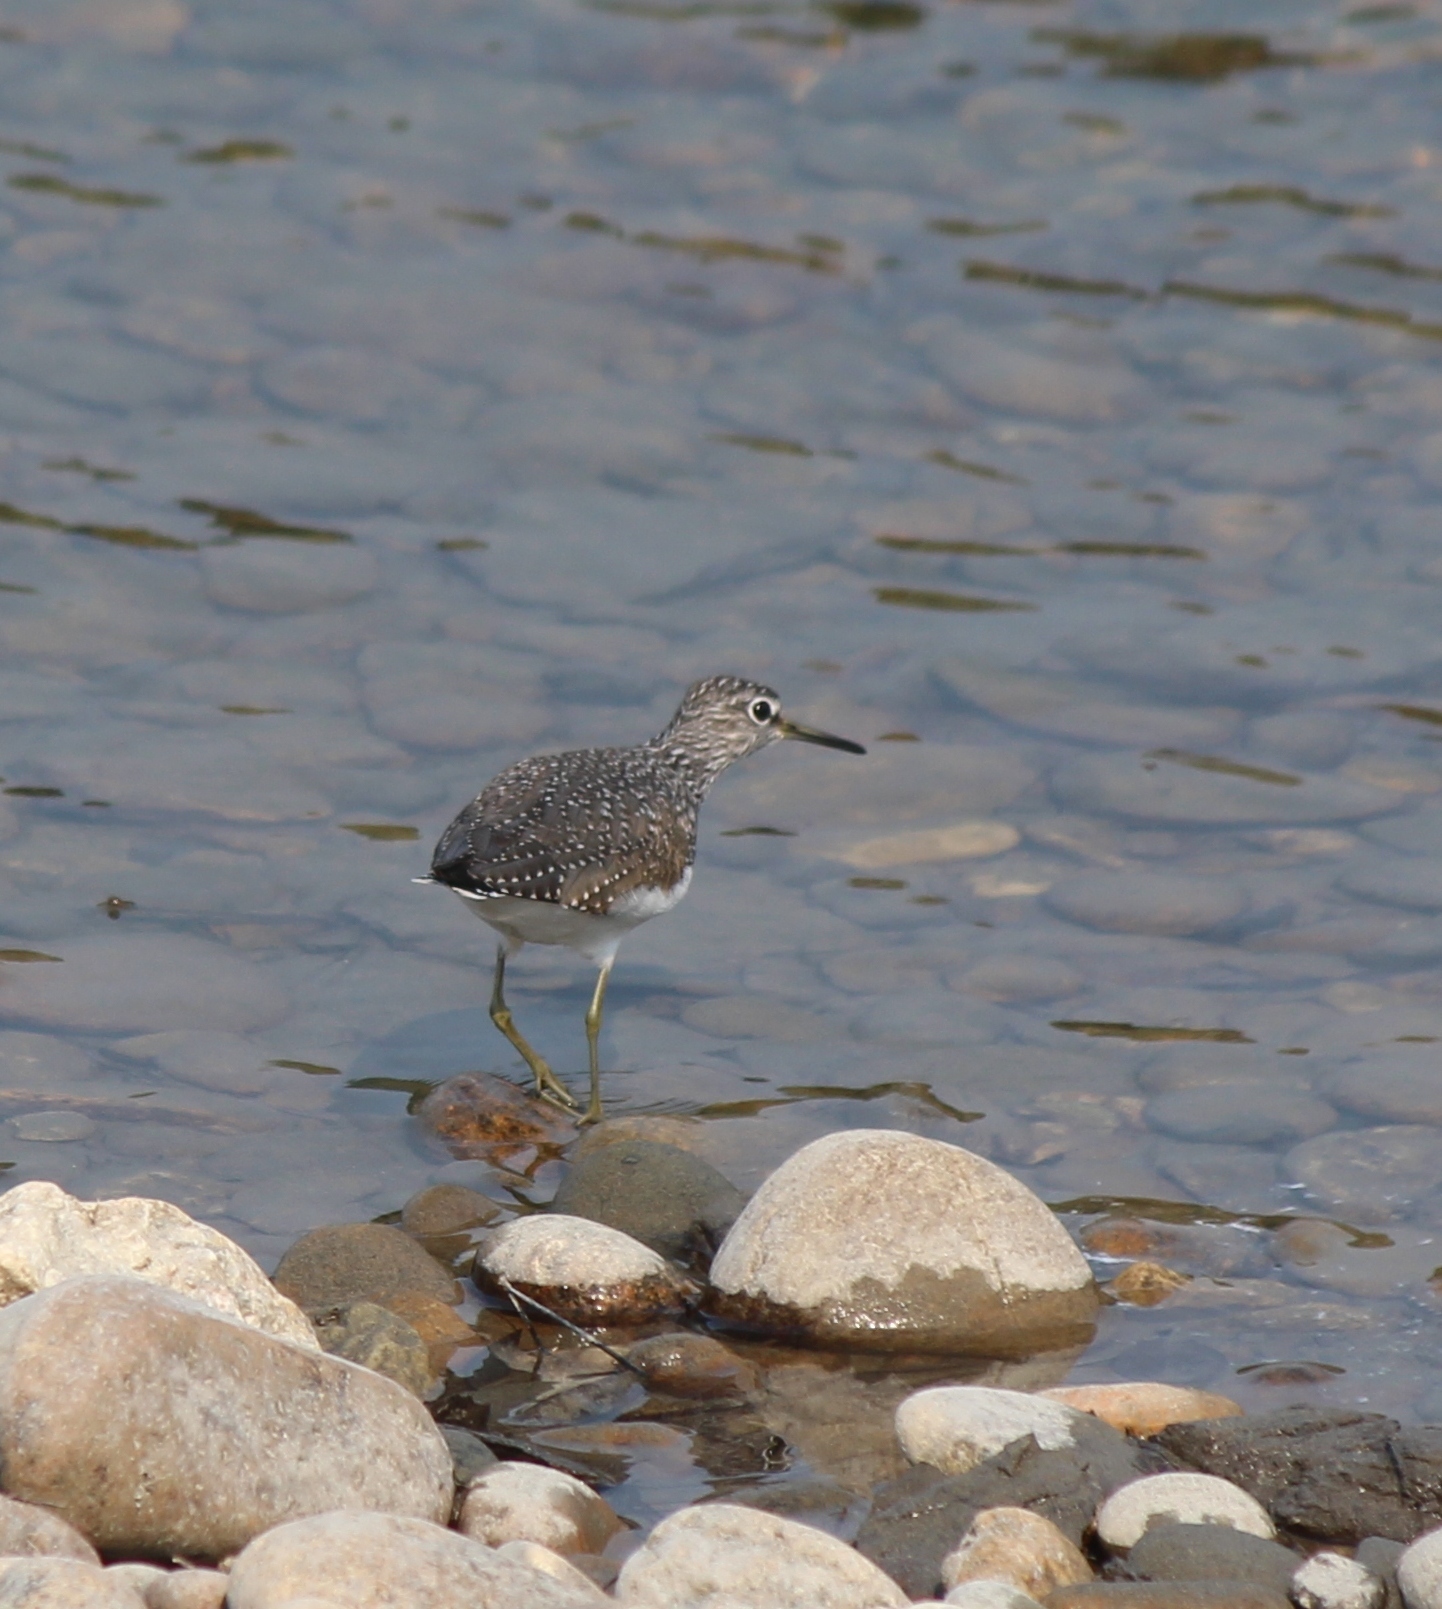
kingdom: Animalia
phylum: Chordata
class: Aves
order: Charadriiformes
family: Scolopacidae
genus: Tringa
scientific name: Tringa ochropus
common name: Green sandpiper
